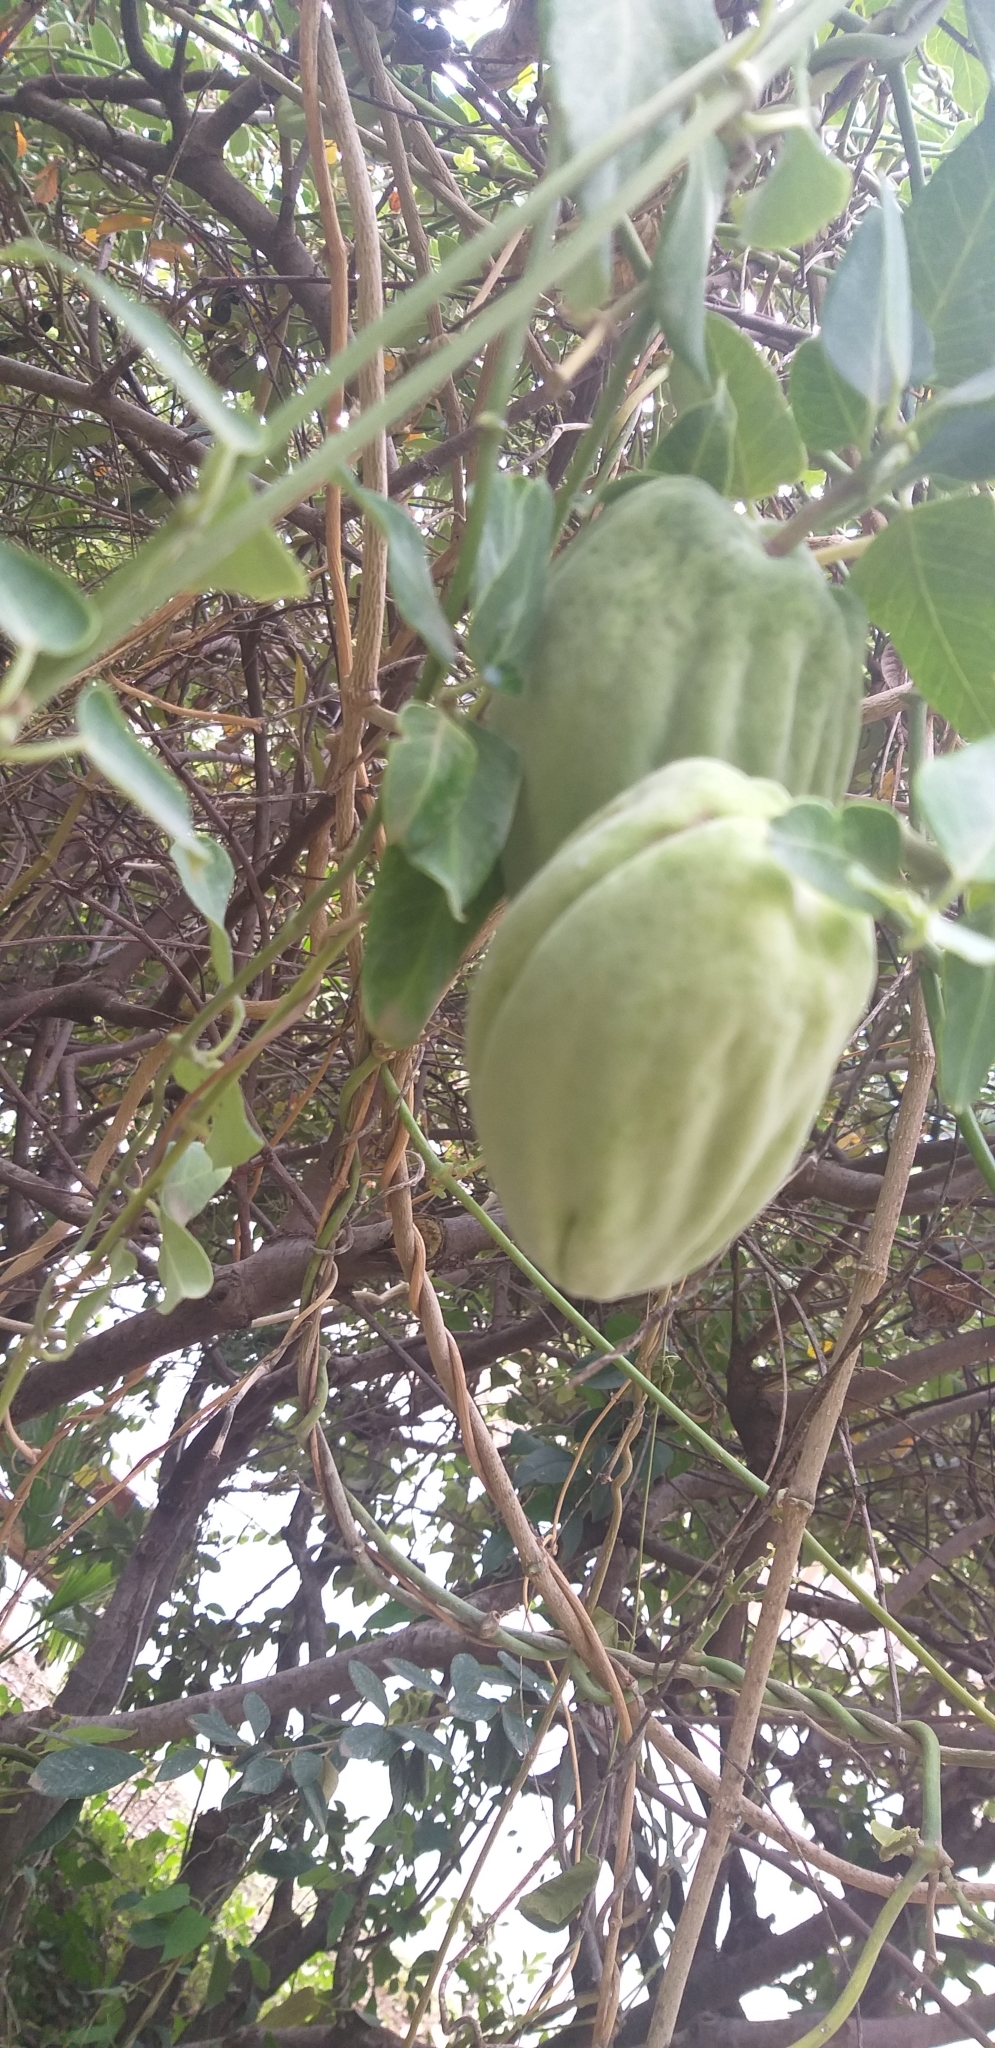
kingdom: Plantae
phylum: Tracheophyta
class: Magnoliopsida
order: Gentianales
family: Apocynaceae
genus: Araujia
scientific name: Araujia sericifera
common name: White bladderflower
